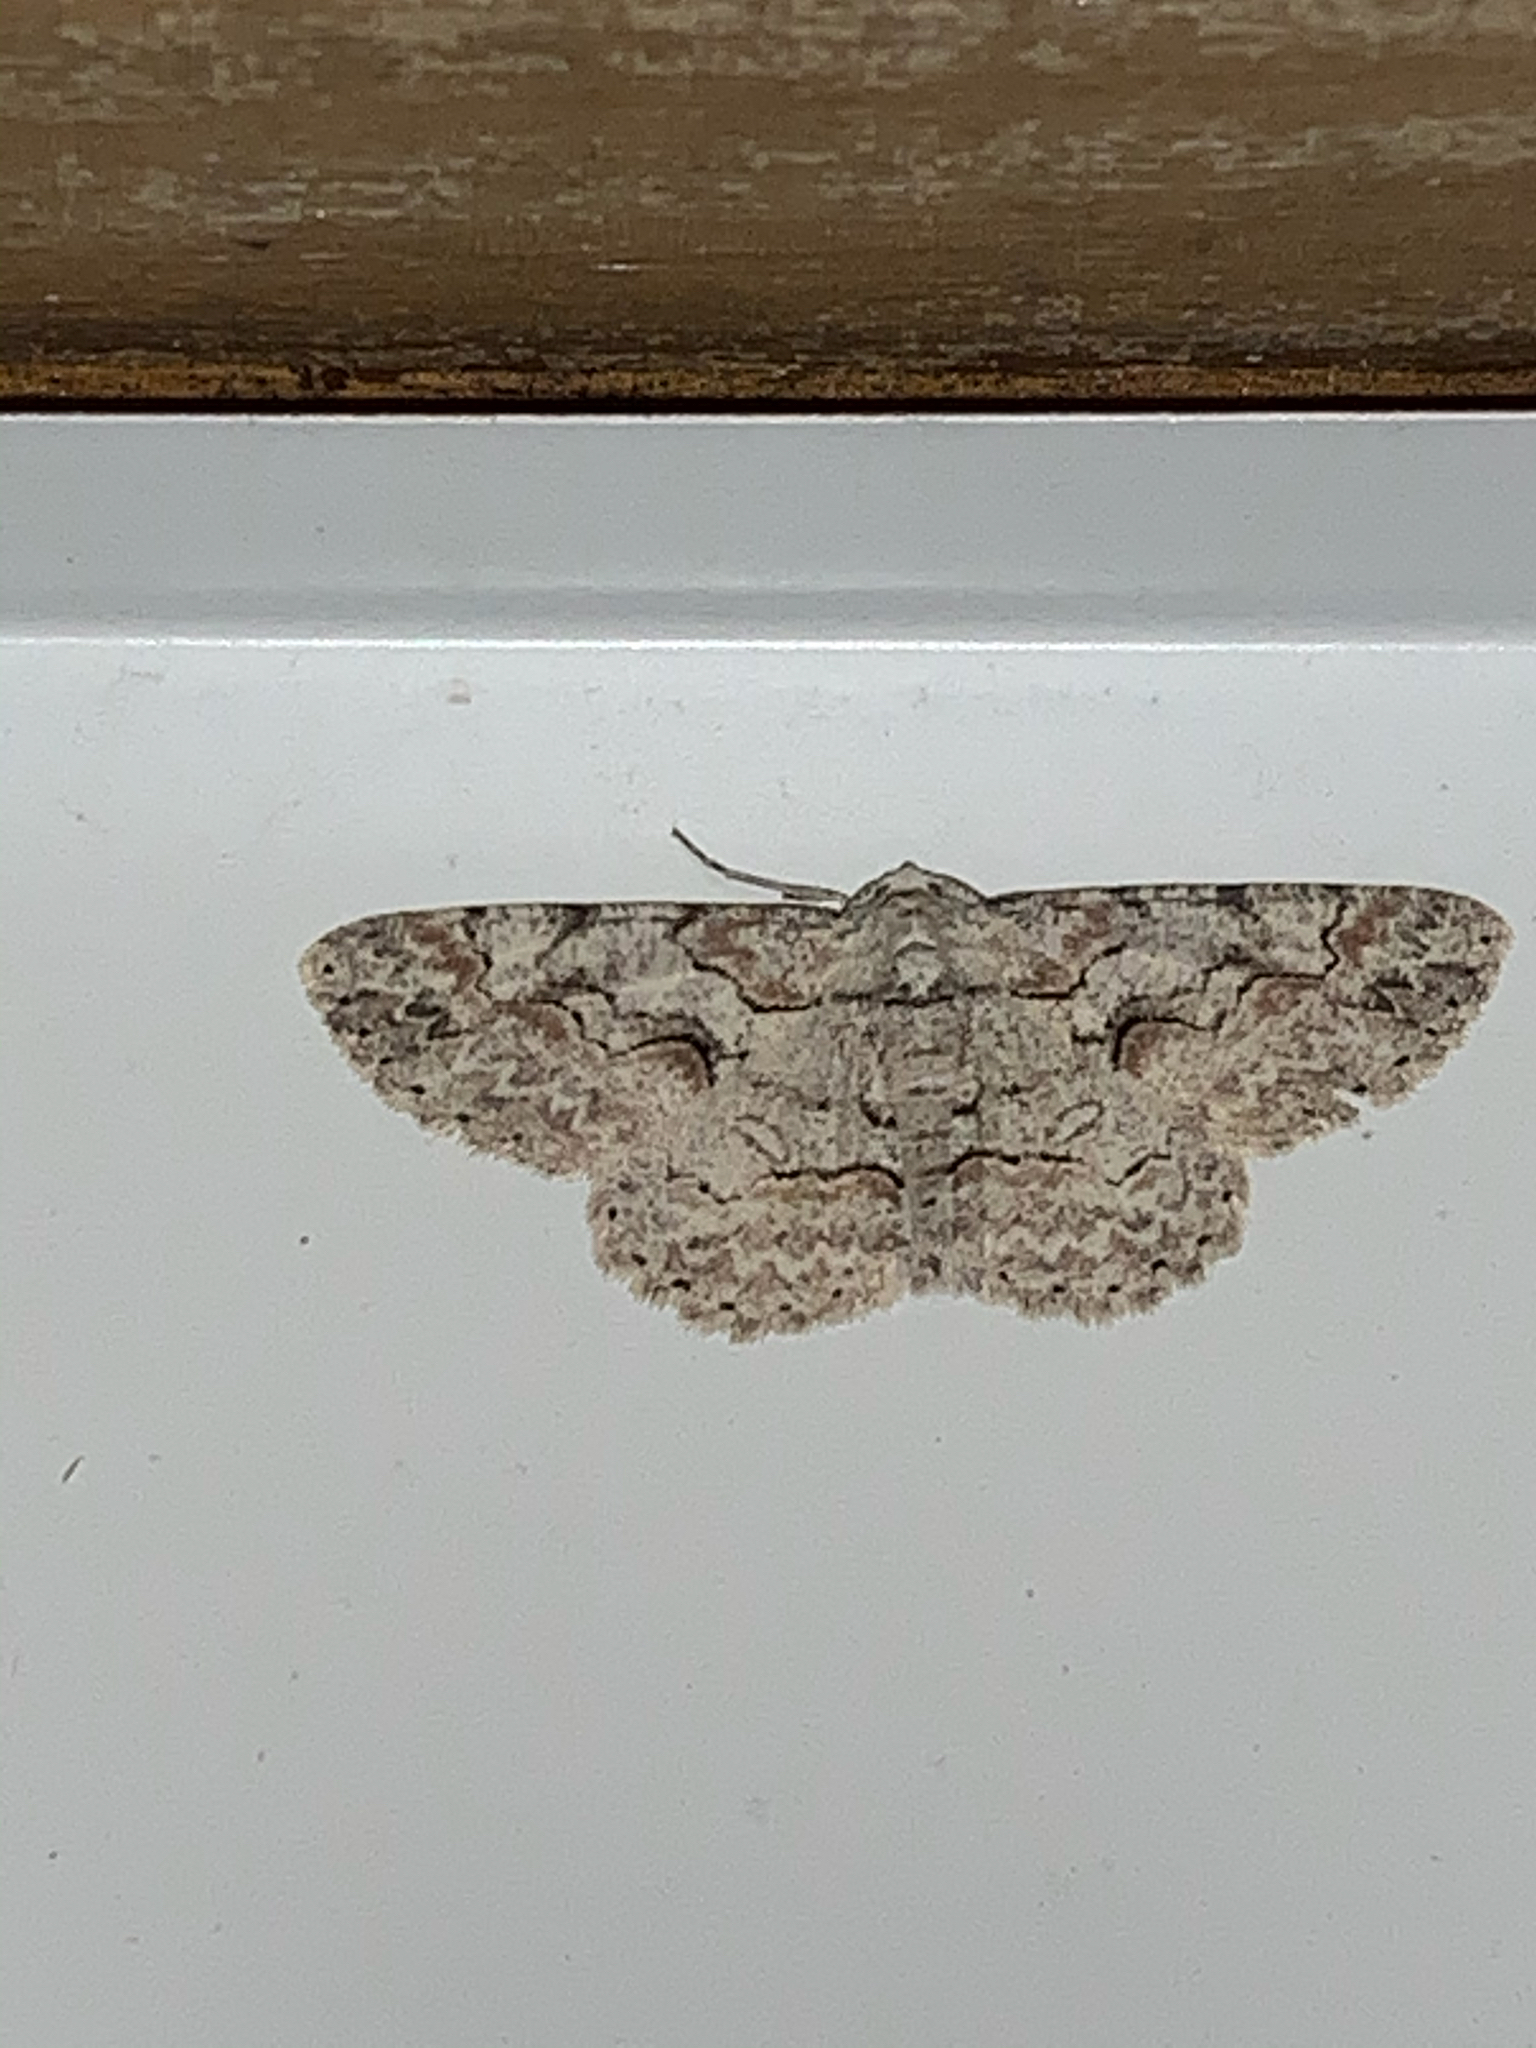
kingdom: Animalia
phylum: Arthropoda
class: Insecta
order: Lepidoptera
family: Geometridae
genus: Iridopsis
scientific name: Iridopsis defectaria
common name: Brown-shaded gray
